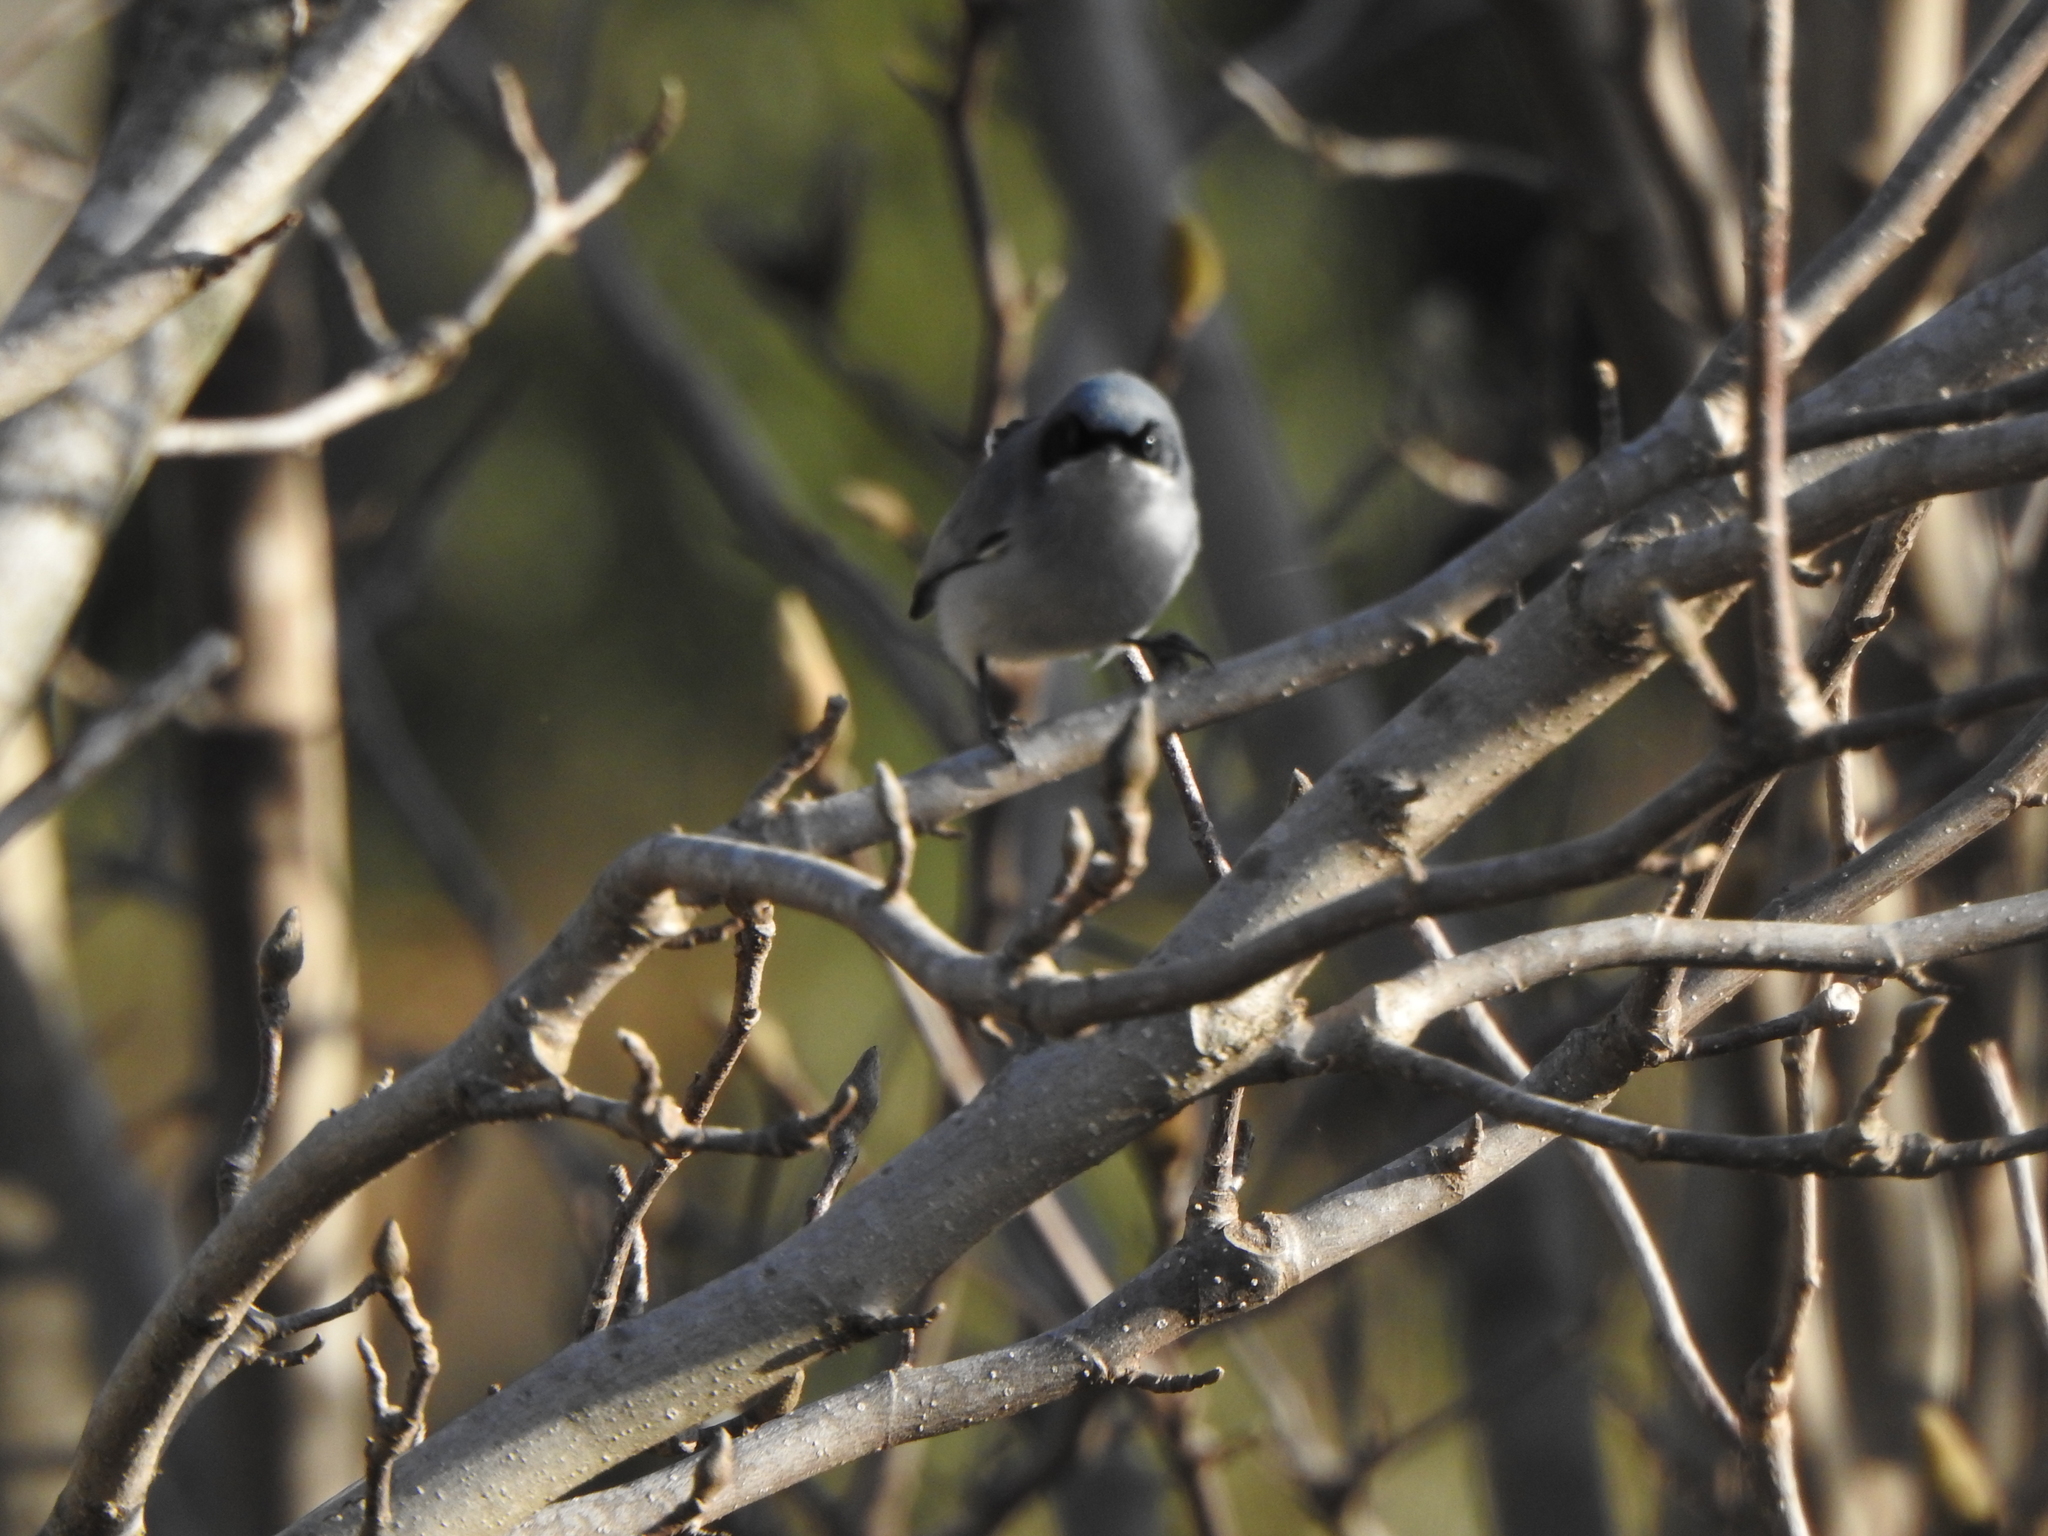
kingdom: Animalia
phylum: Chordata
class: Aves
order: Passeriformes
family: Polioptilidae
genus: Polioptila
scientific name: Polioptila dumicola
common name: Masked gnatcatcher
